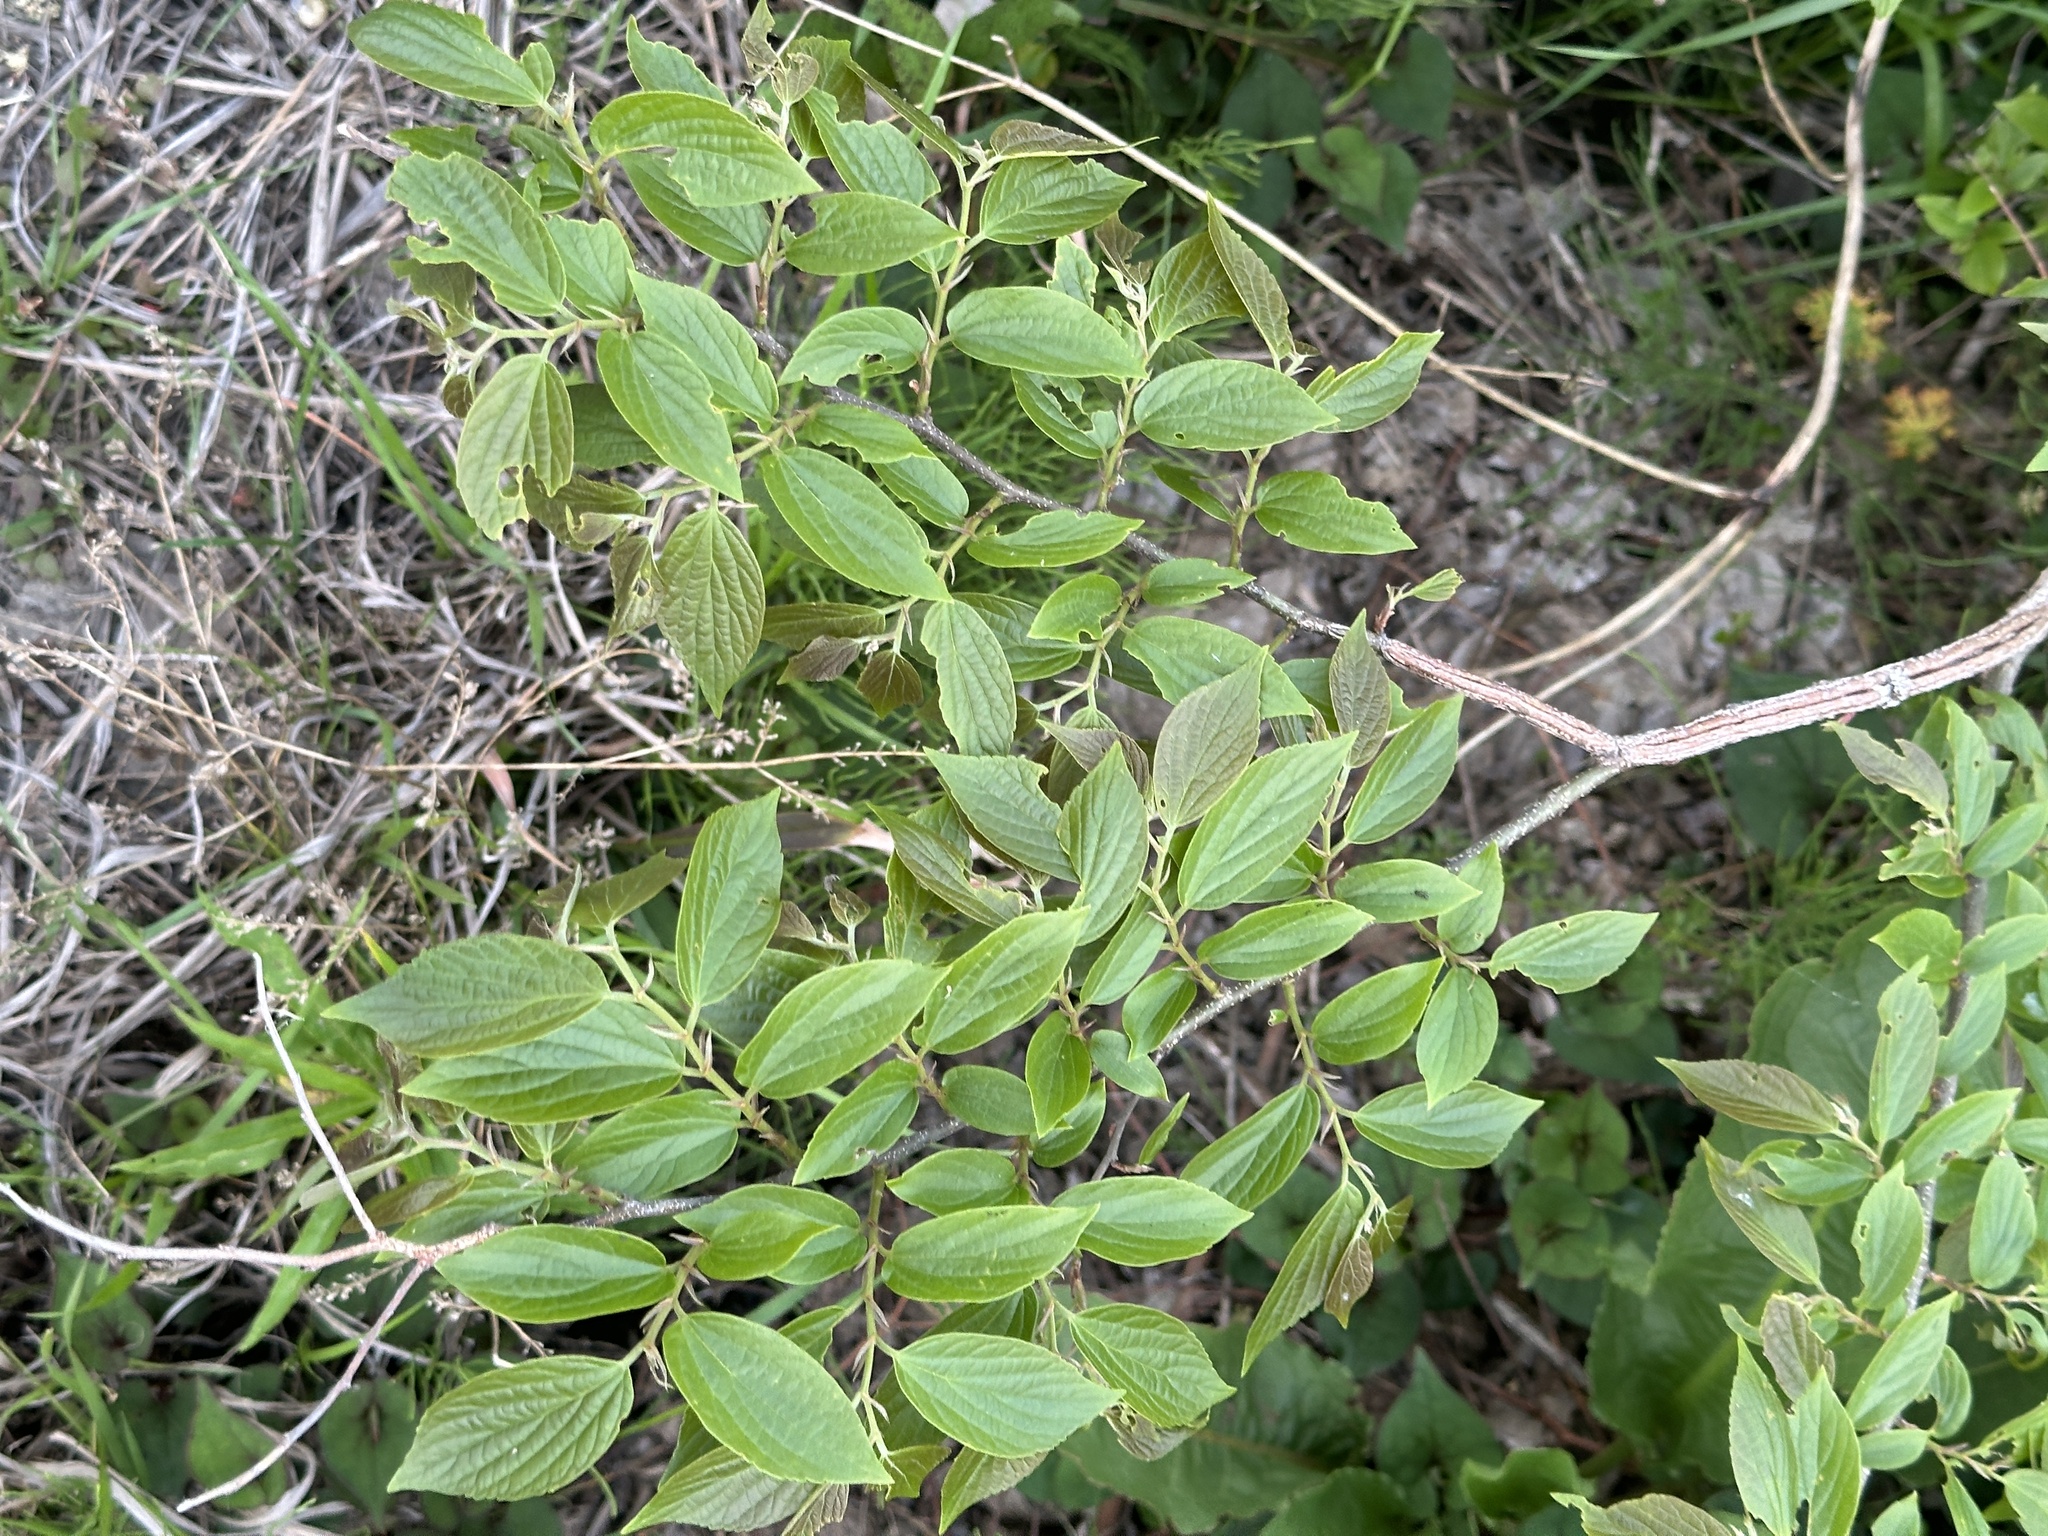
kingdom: Plantae
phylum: Tracheophyta
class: Magnoliopsida
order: Rosales
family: Cannabaceae
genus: Celtis
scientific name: Celtis sinensis
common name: Chinese hackberry
